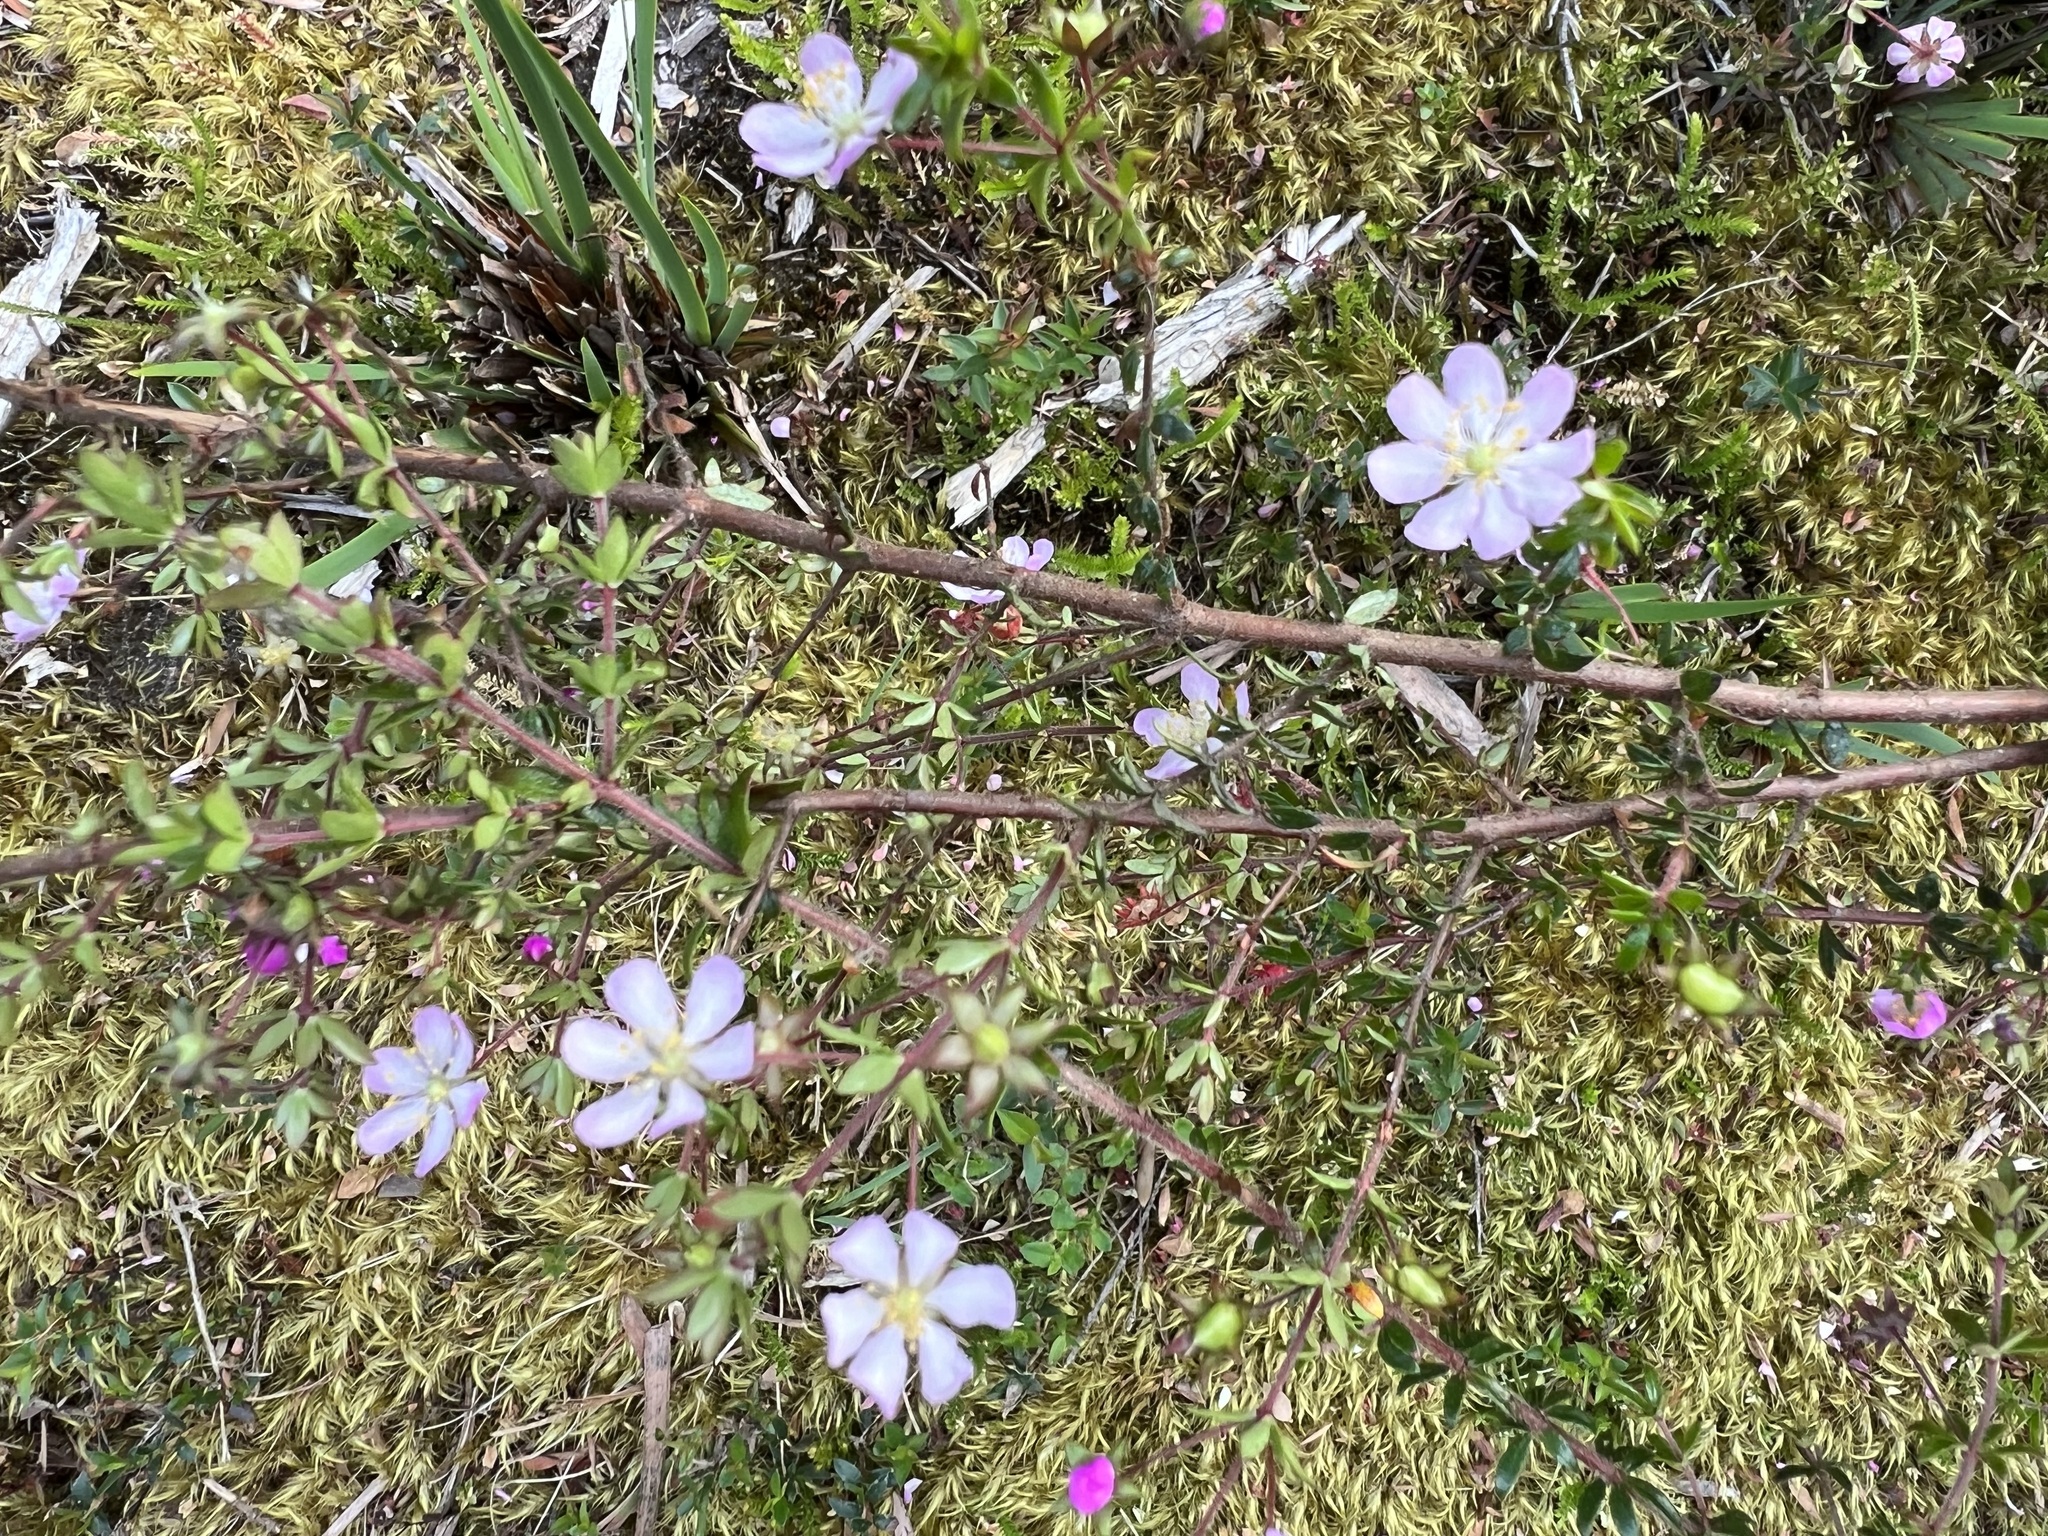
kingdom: Plantae
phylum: Tracheophyta
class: Magnoliopsida
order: Oxalidales
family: Cunoniaceae
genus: Bauera
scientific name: Bauera rubioides
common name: River-rose
